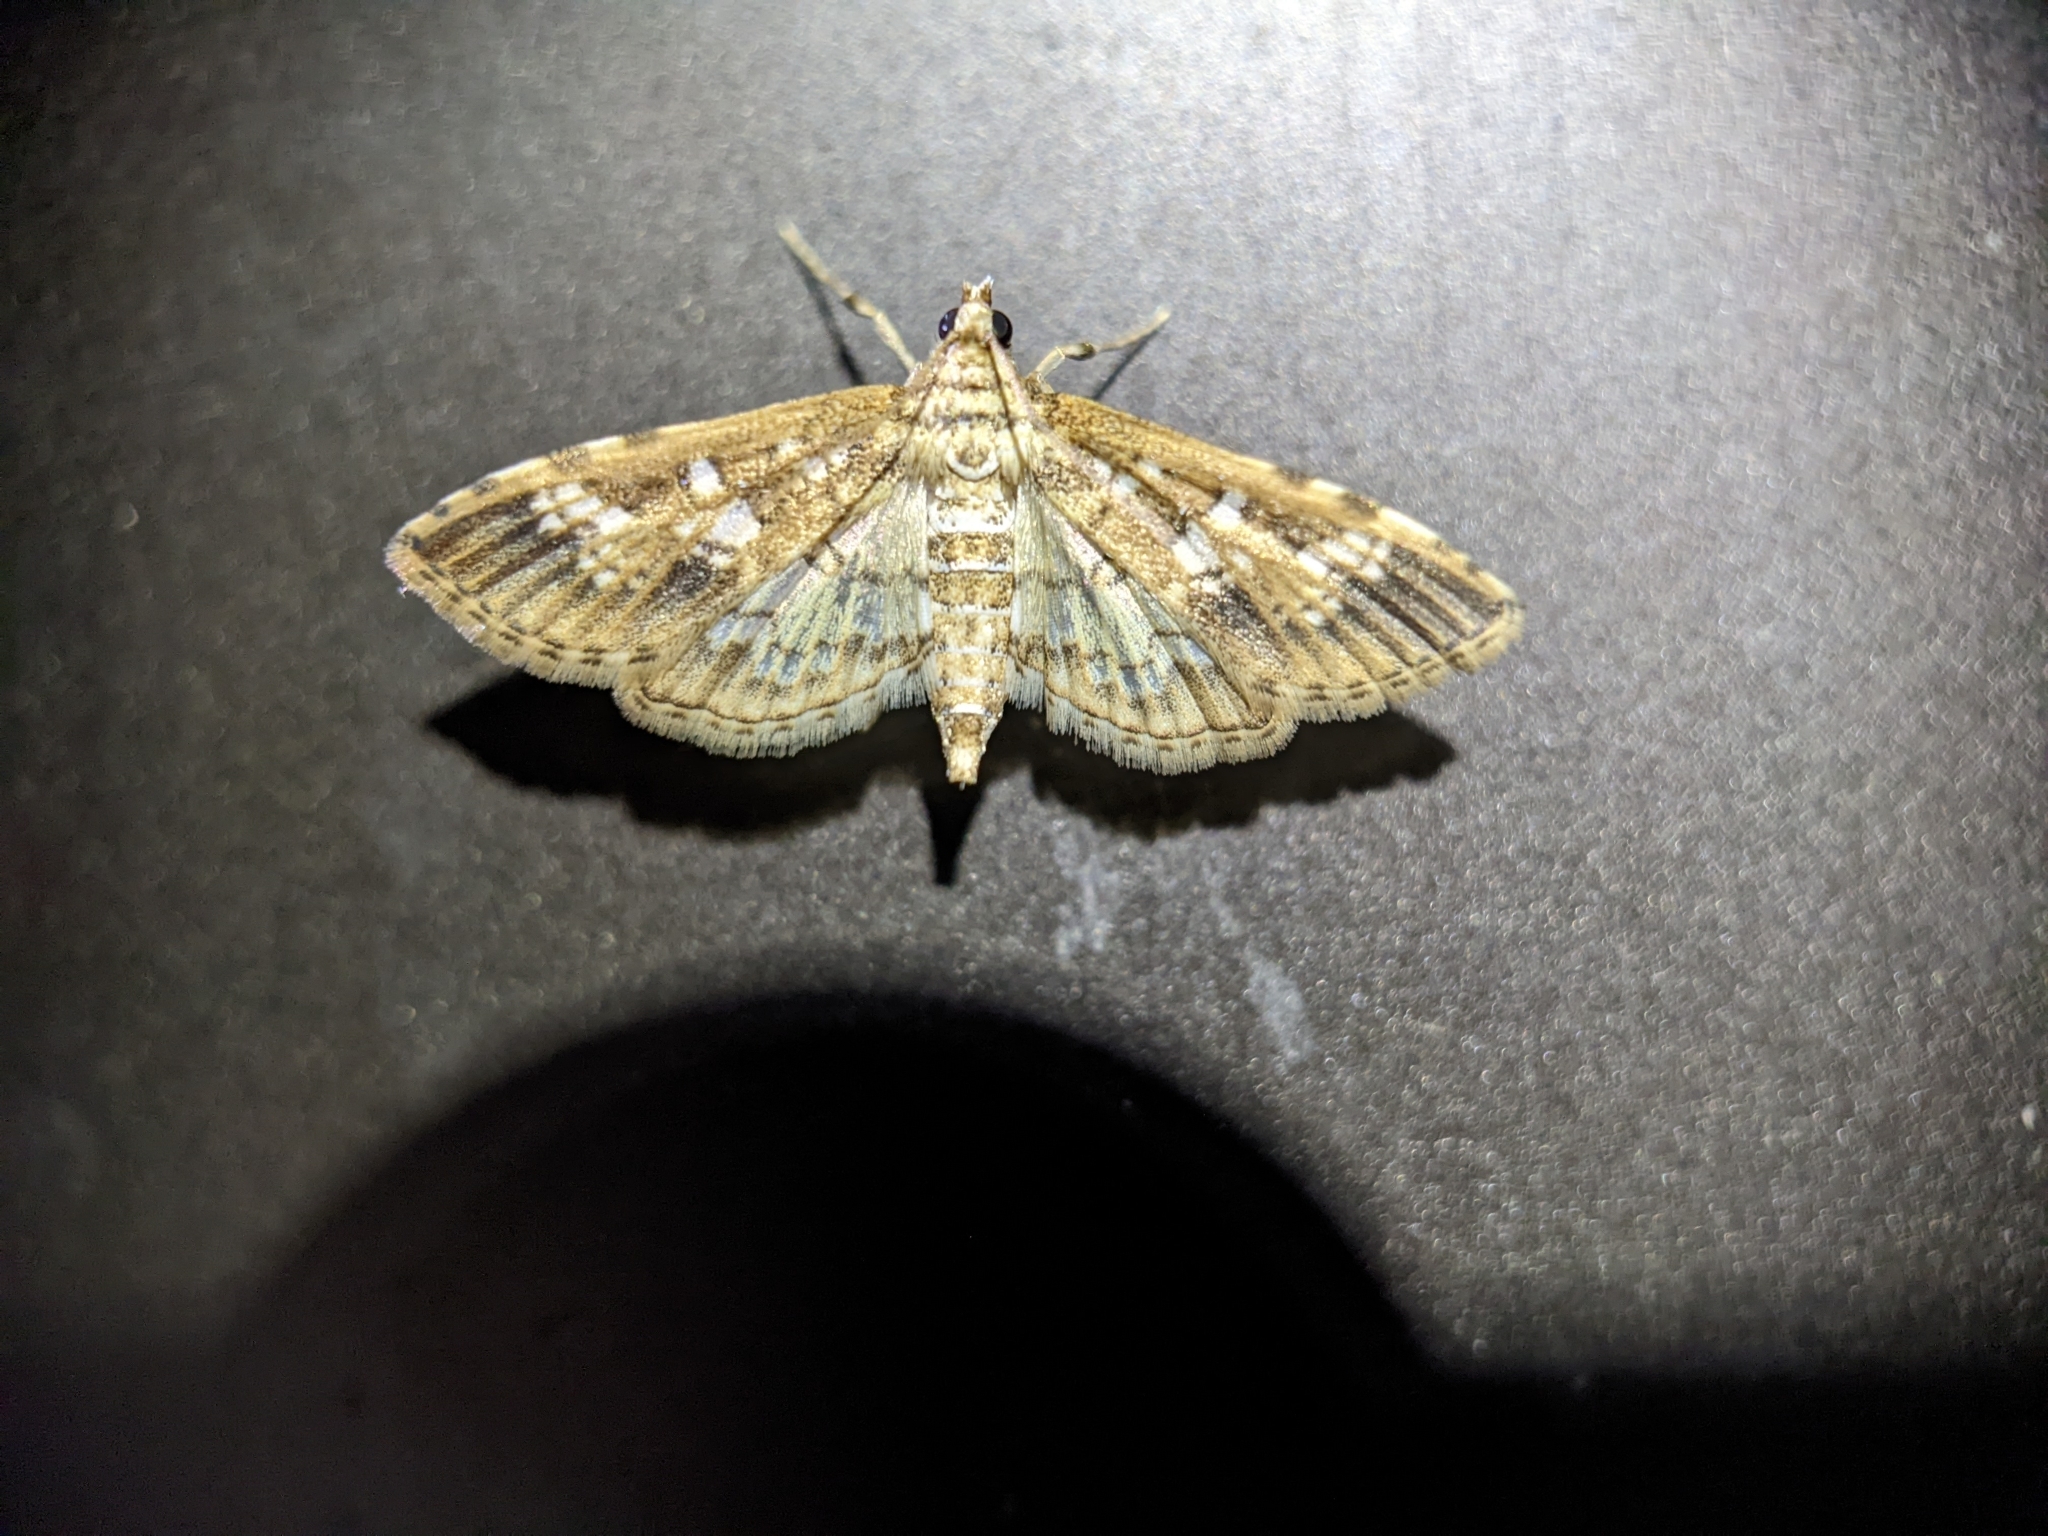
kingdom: Animalia
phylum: Arthropoda
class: Insecta
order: Lepidoptera
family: Crambidae
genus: Samea
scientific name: Samea multiplicalis
